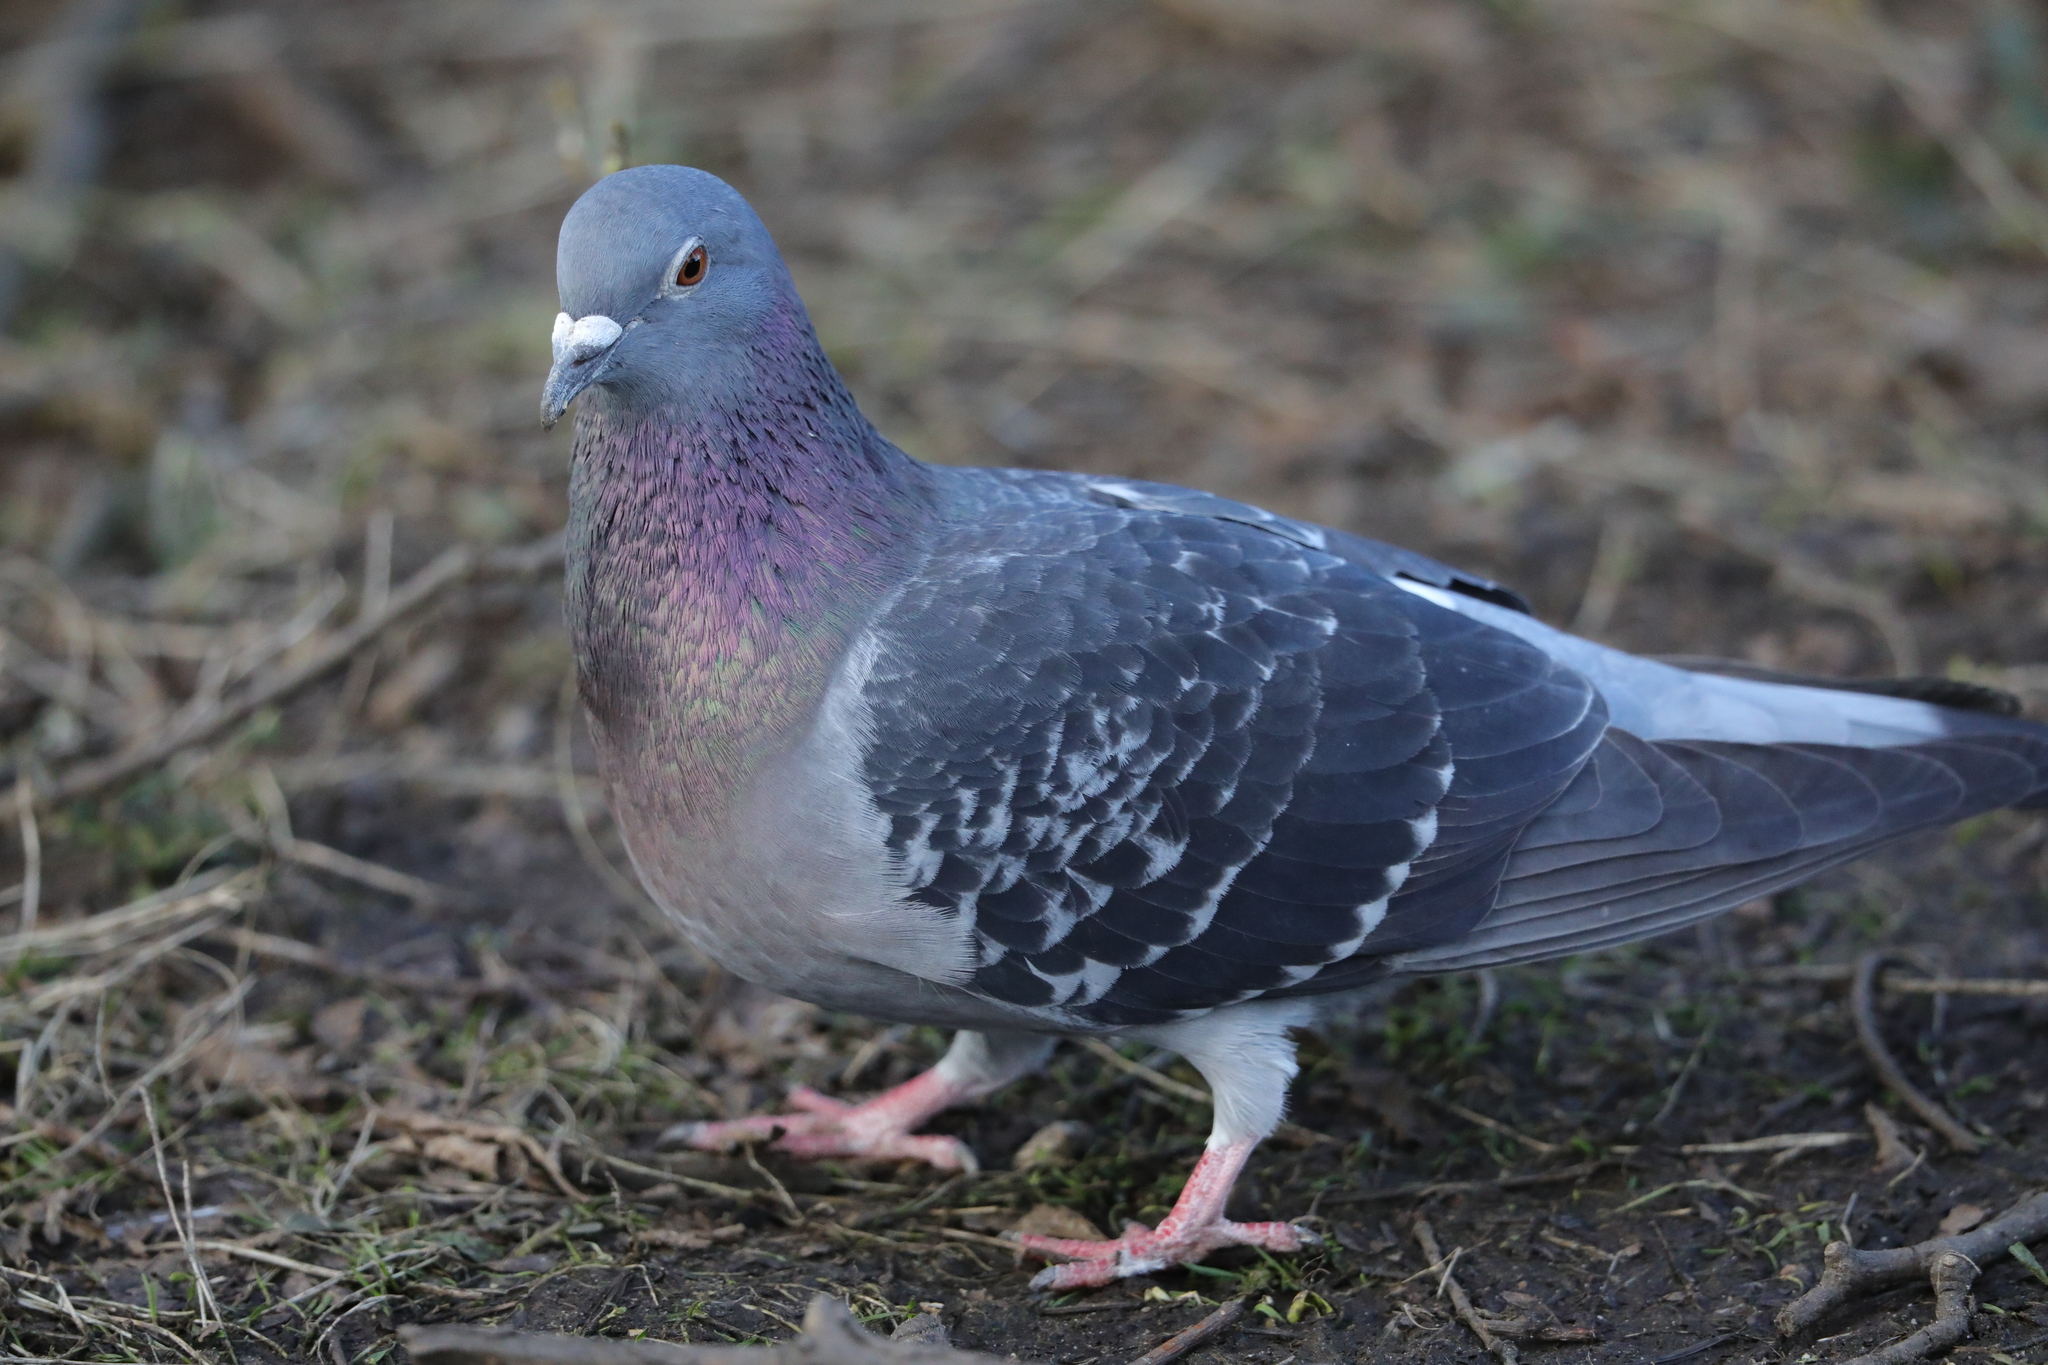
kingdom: Animalia
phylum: Chordata
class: Aves
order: Columbiformes
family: Columbidae
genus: Columba
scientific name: Columba livia
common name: Rock pigeon
